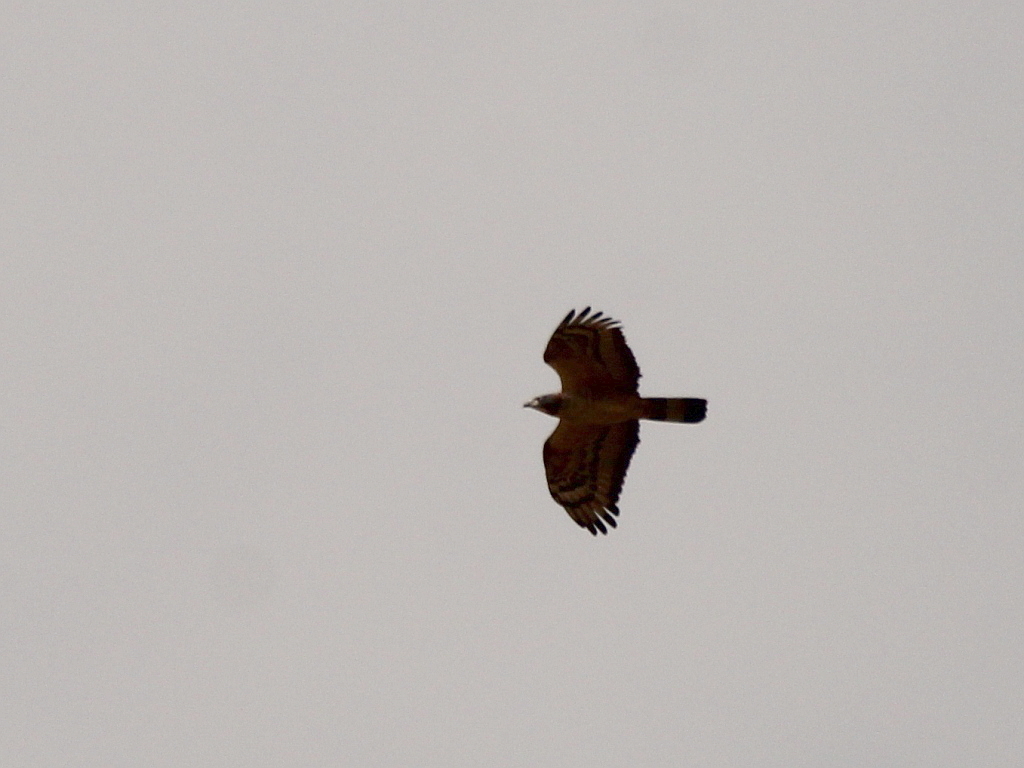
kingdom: Animalia
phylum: Chordata
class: Aves
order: Accipitriformes
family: Accipitridae
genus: Pernis
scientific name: Pernis ptilorhynchus
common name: Crested honey buzzard
